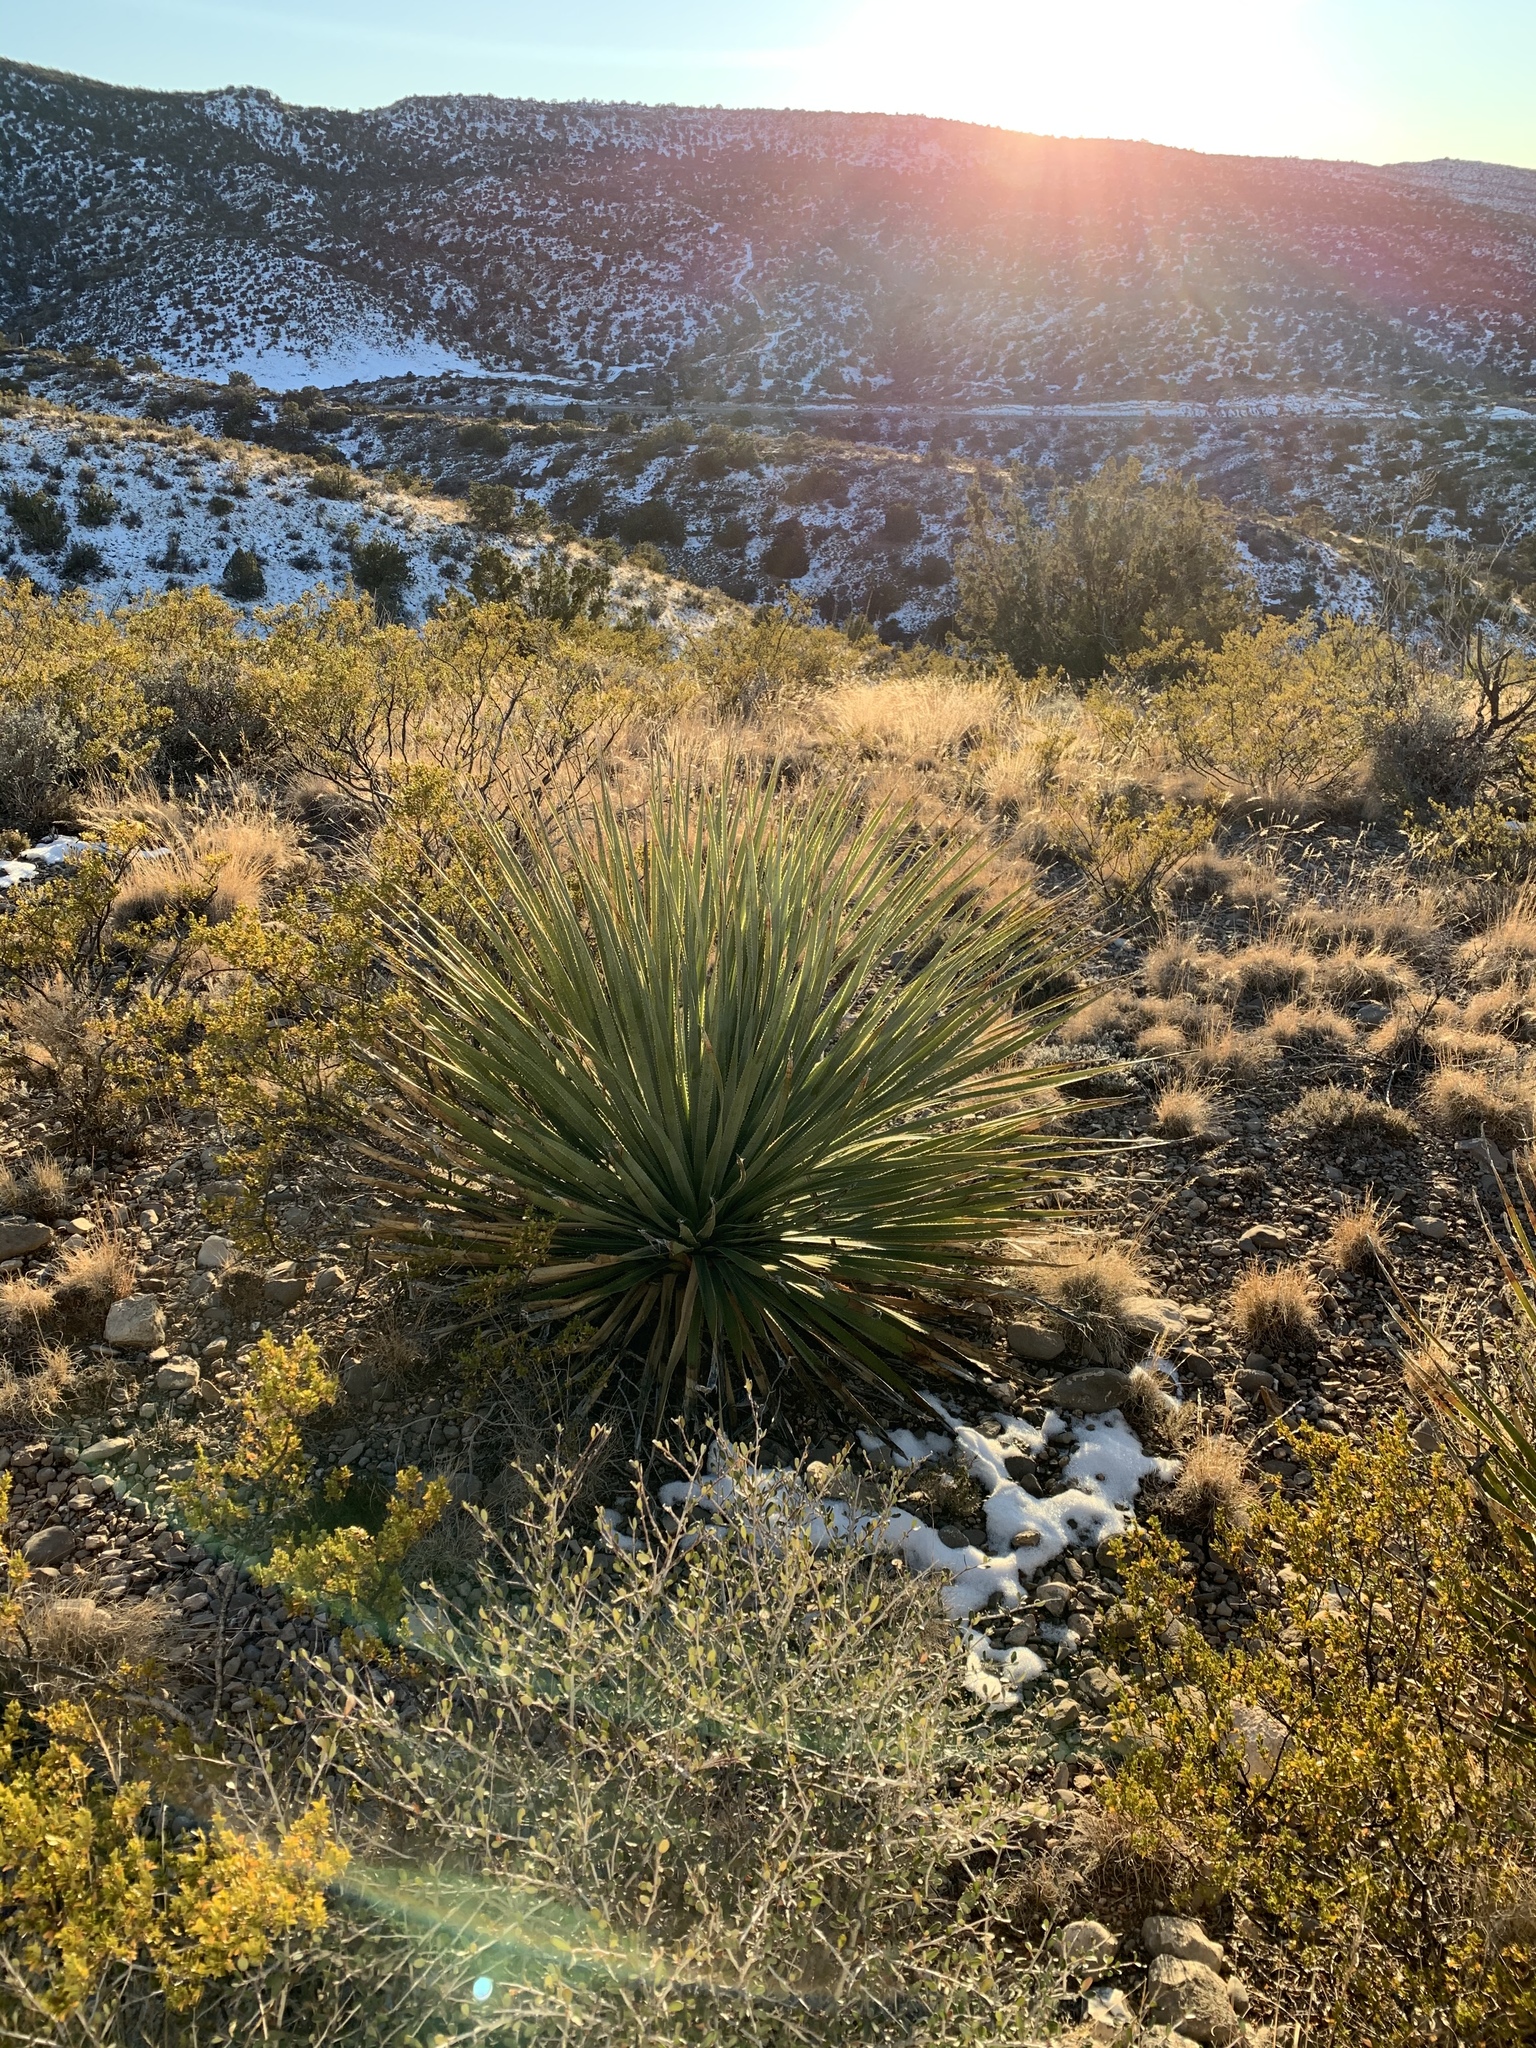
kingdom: Plantae
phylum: Tracheophyta
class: Liliopsida
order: Asparagales
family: Asparagaceae
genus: Dasylirion
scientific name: Dasylirion wheeleri
